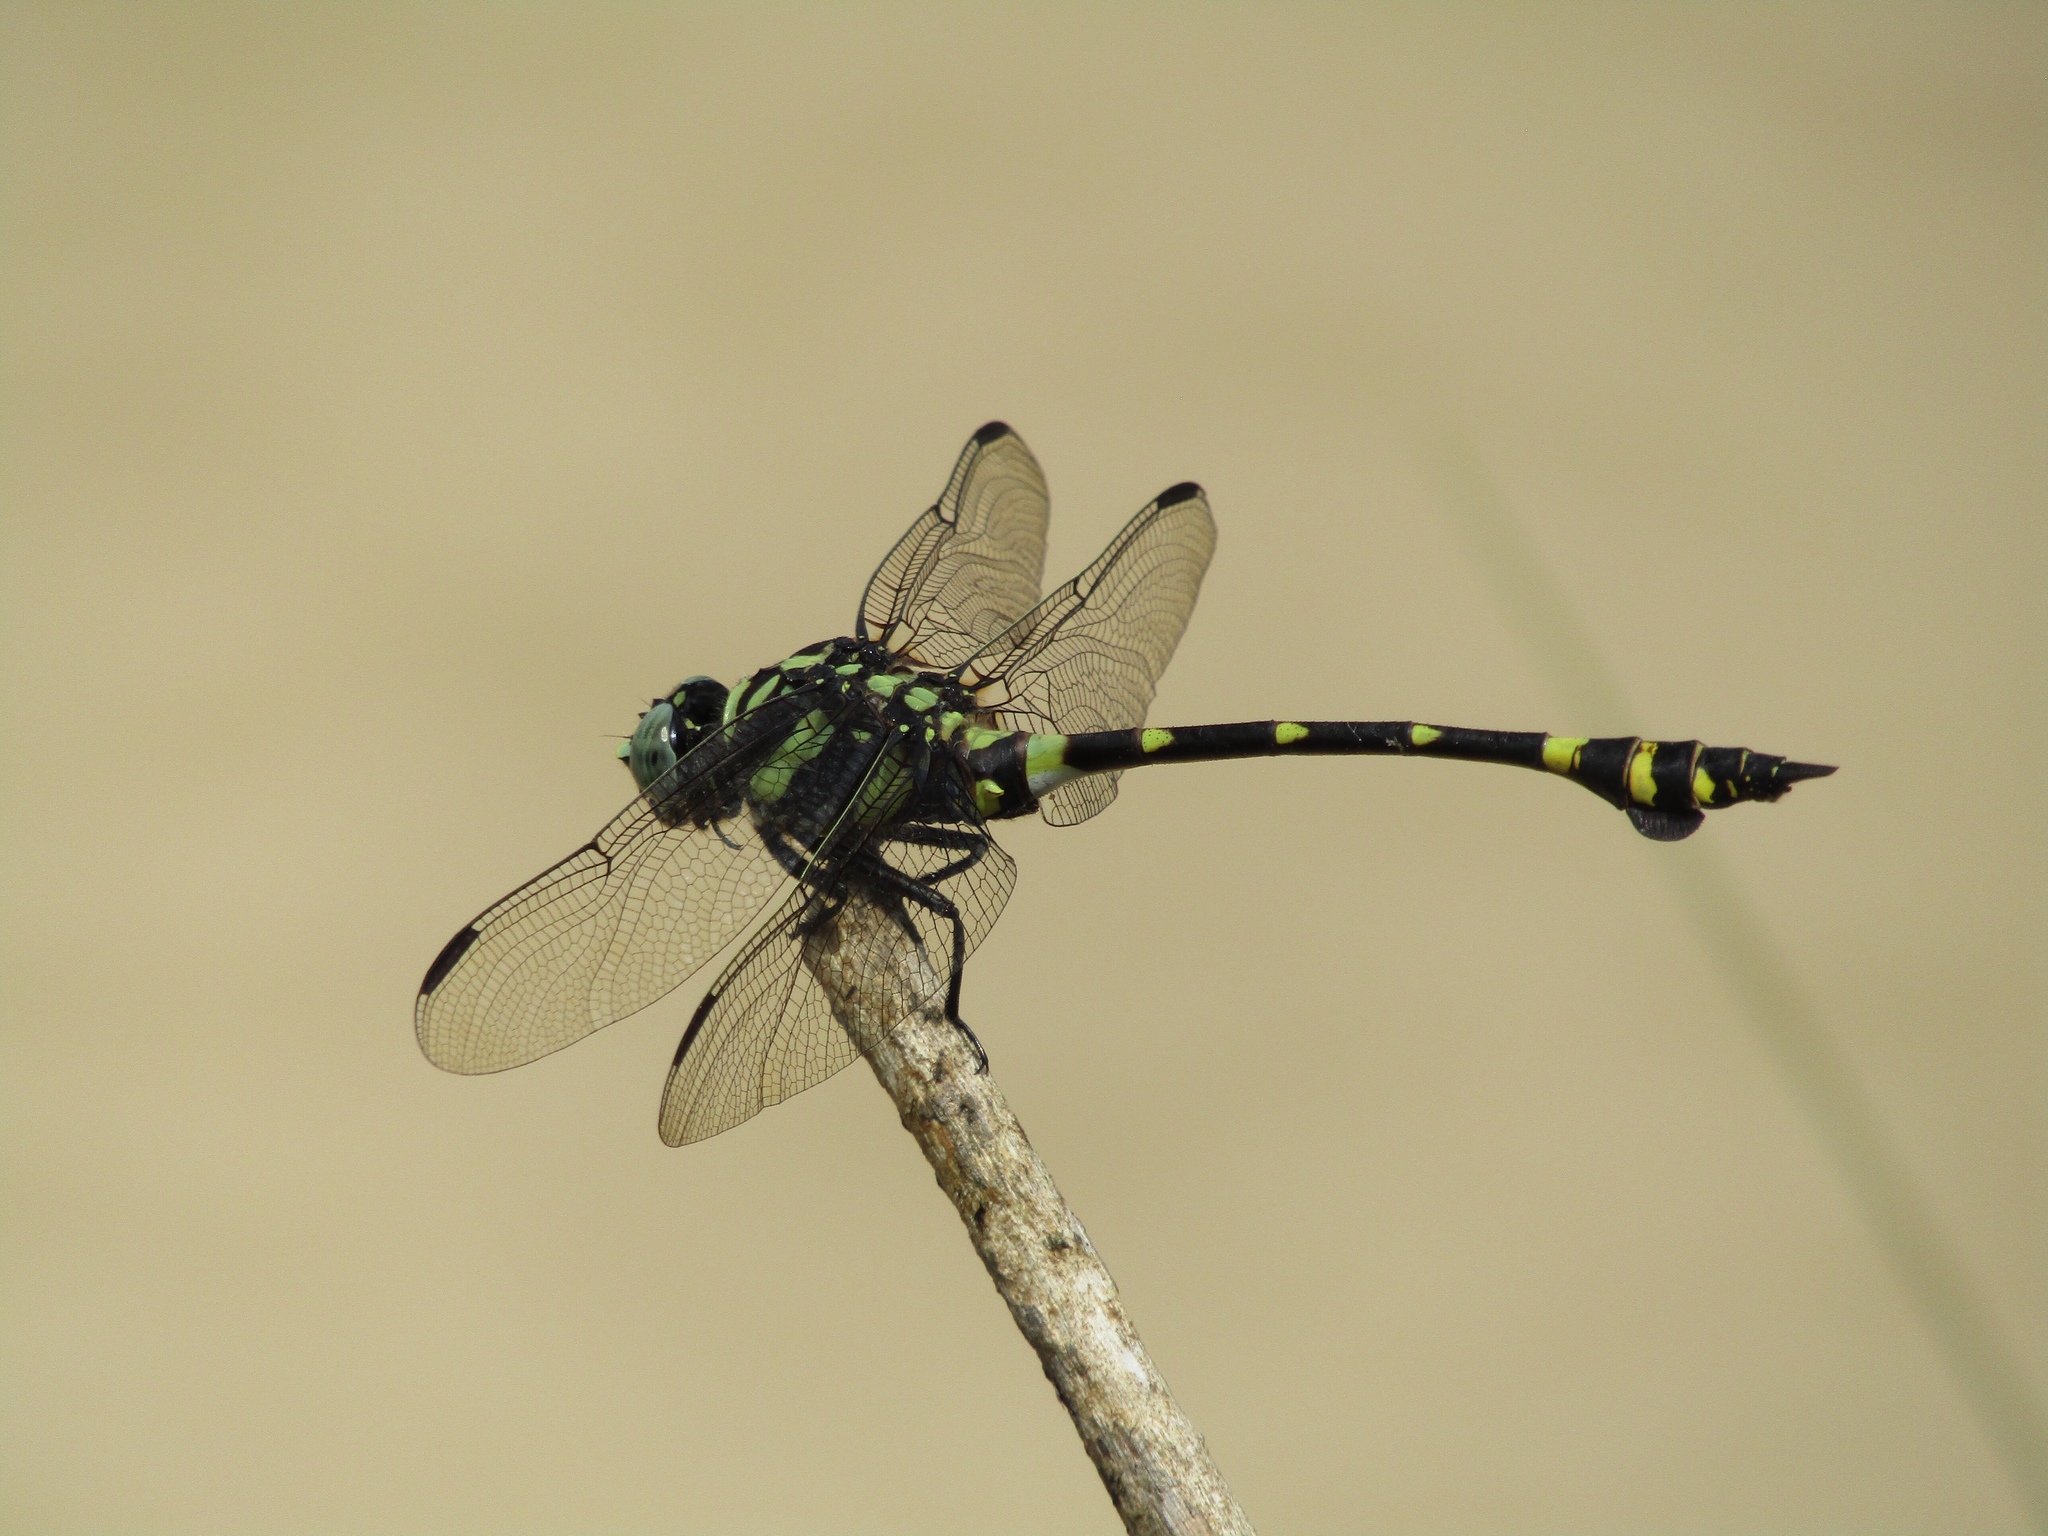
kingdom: Animalia
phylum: Arthropoda
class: Insecta
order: Odonata
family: Gomphidae
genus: Ictinogomphus
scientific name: Ictinogomphus decoratus
